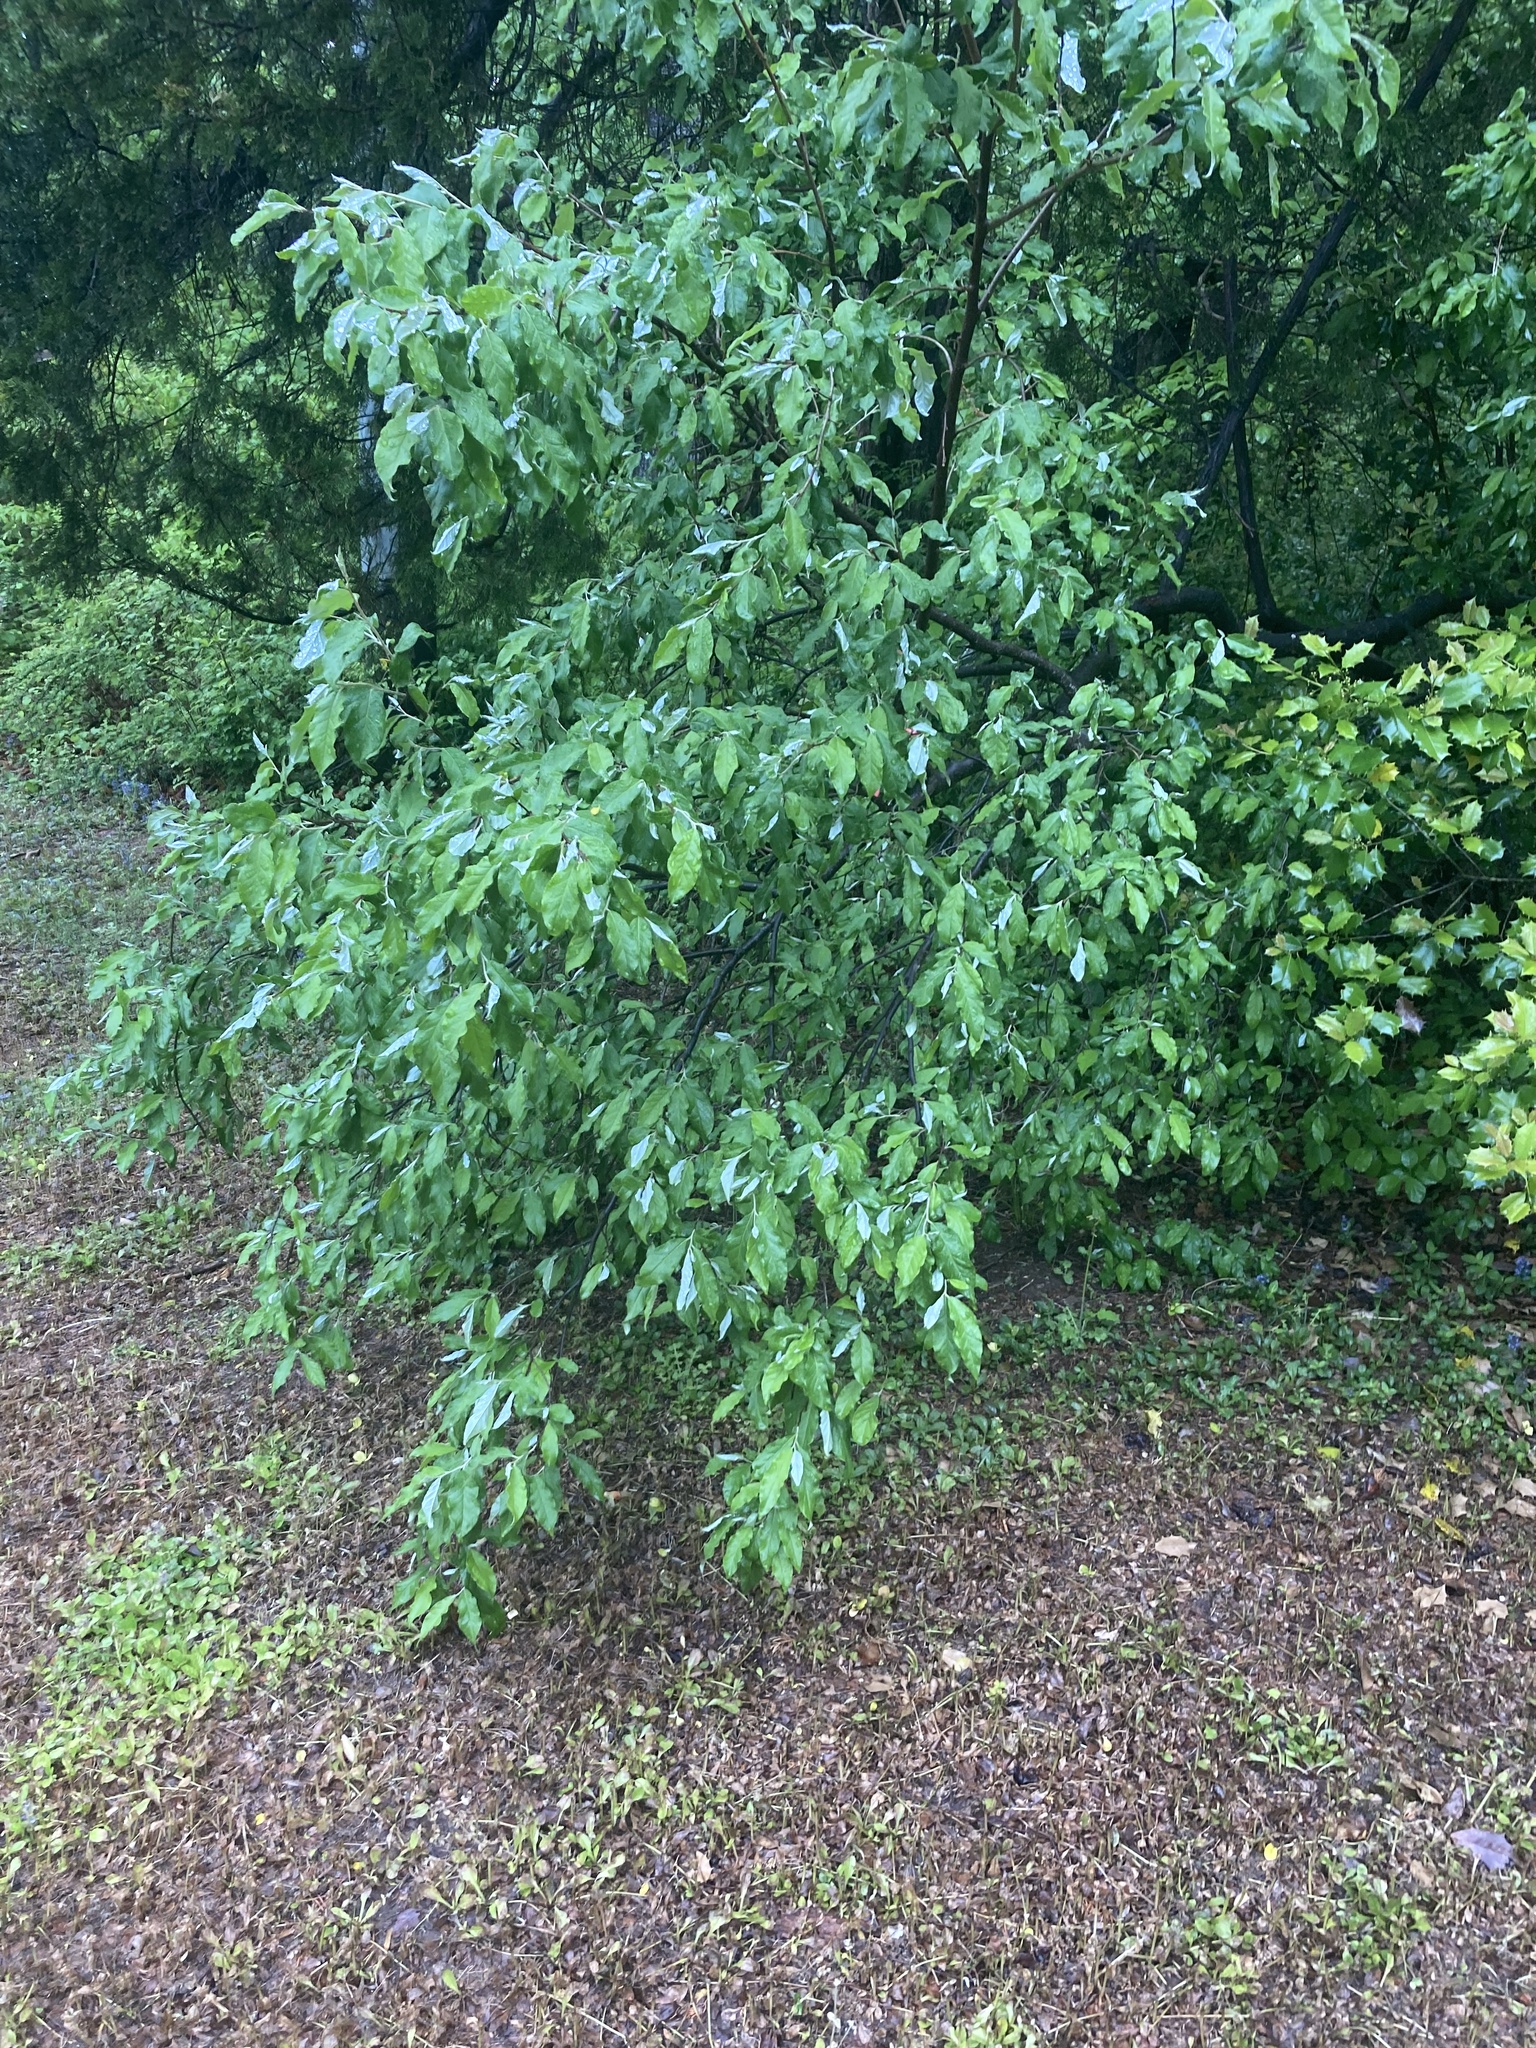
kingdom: Plantae
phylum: Tracheophyta
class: Magnoliopsida
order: Rosales
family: Elaeagnaceae
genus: Elaeagnus
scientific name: Elaeagnus umbellata
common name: Autumn olive
